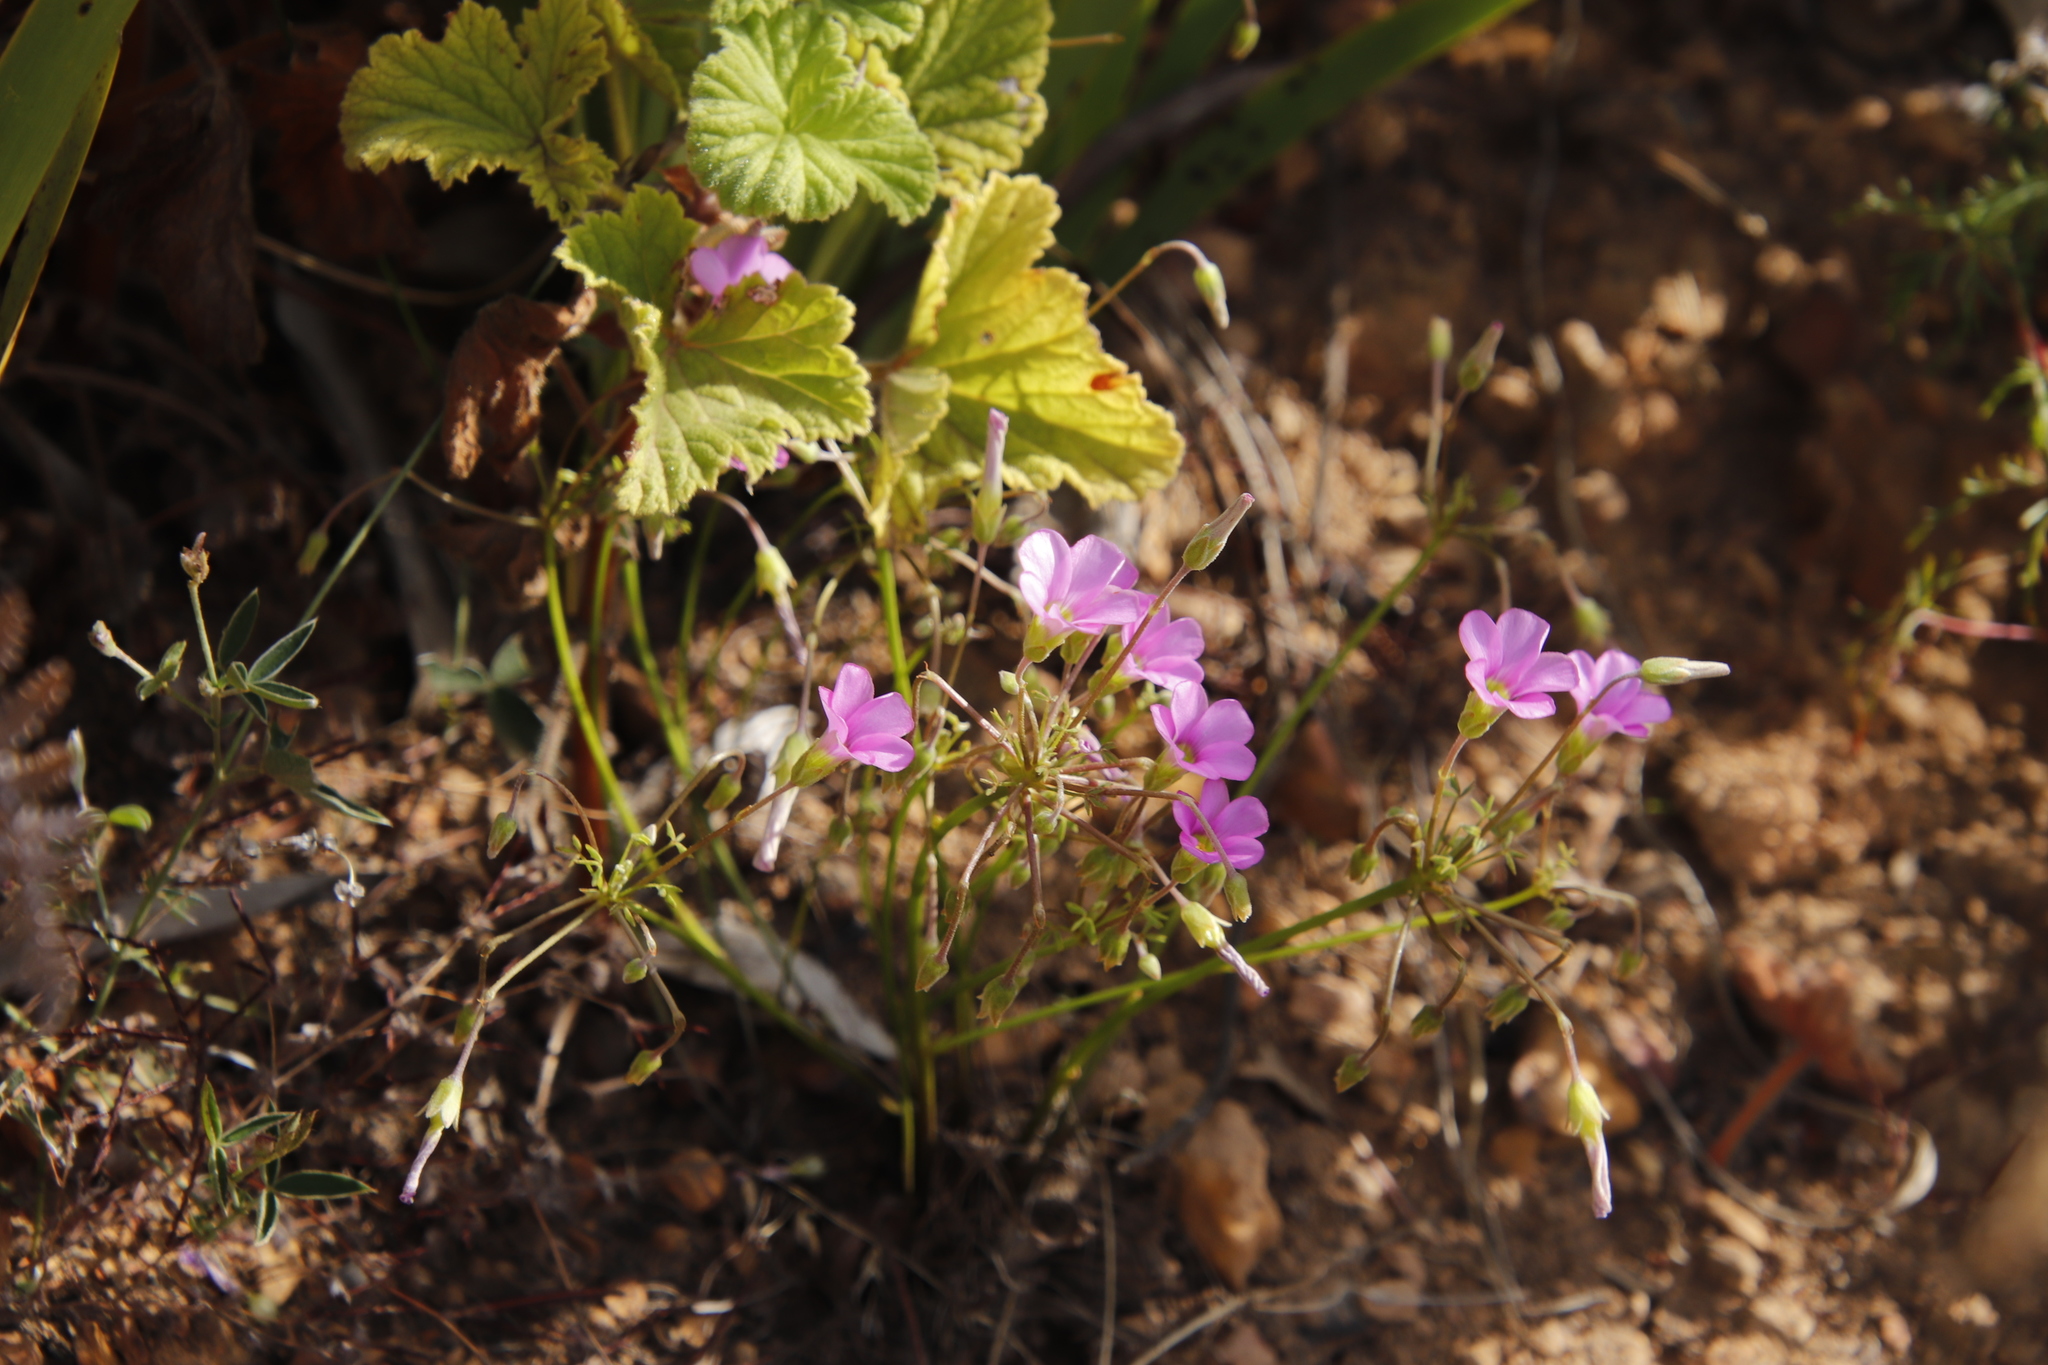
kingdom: Plantae
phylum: Tracheophyta
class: Magnoliopsida
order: Oxalidales
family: Oxalidaceae
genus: Oxalis
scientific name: Oxalis bifida
